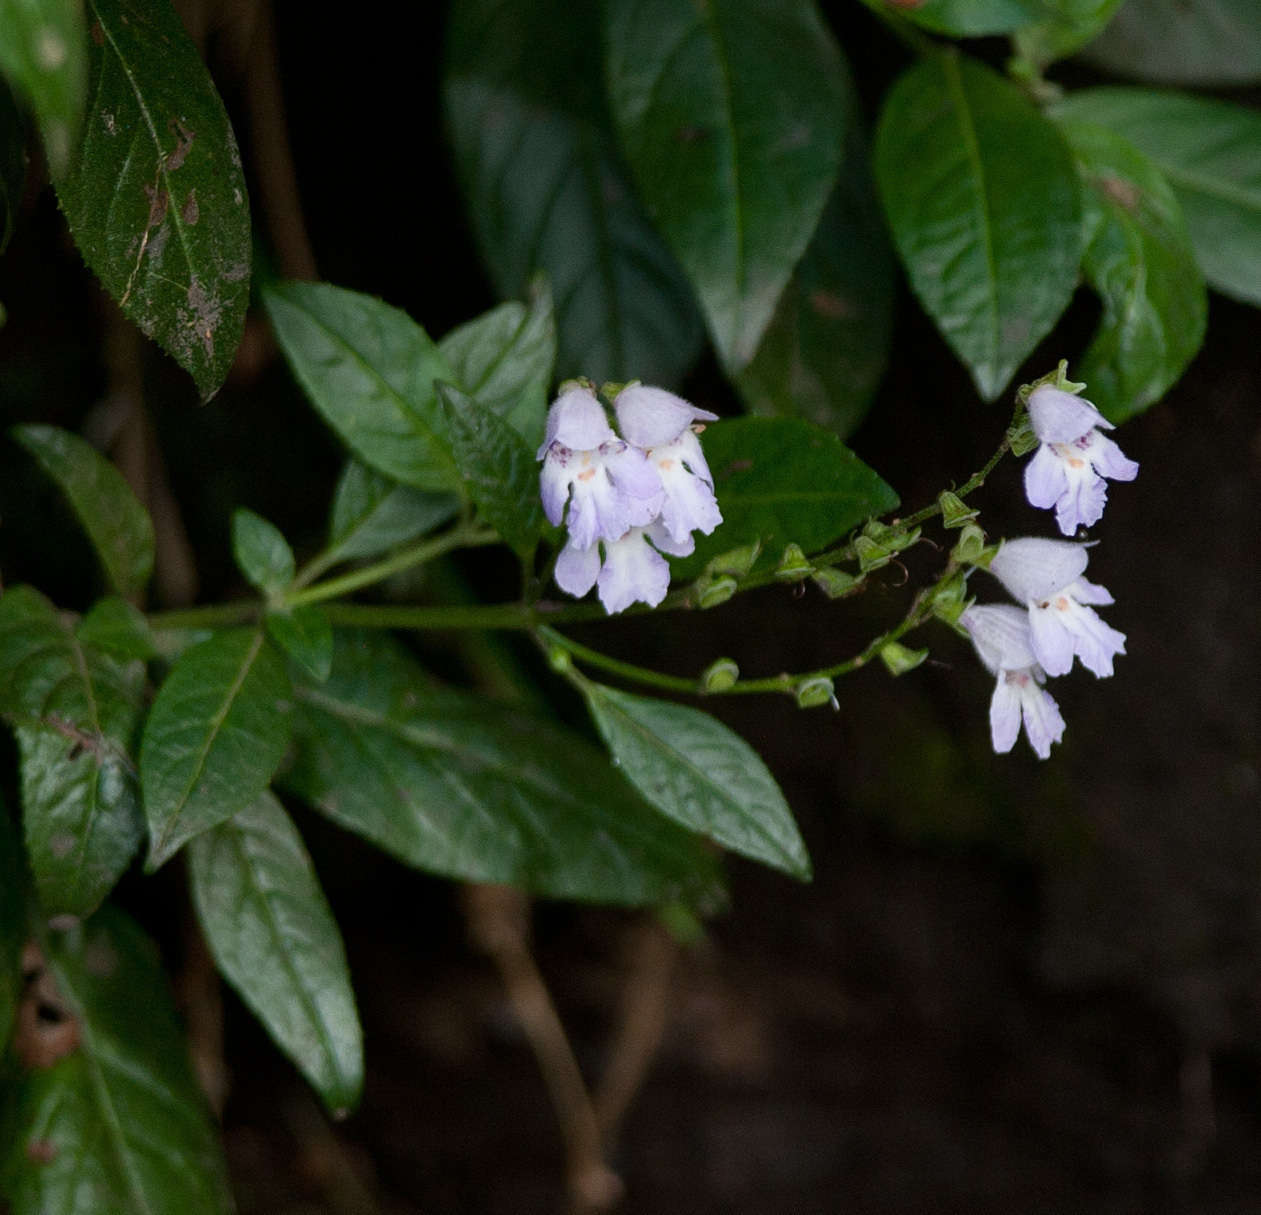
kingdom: Plantae
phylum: Tracheophyta
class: Magnoliopsida
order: Lamiales
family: Lamiaceae
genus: Prostanthera
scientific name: Prostanthera lasianthos
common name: Mountain-lilac
